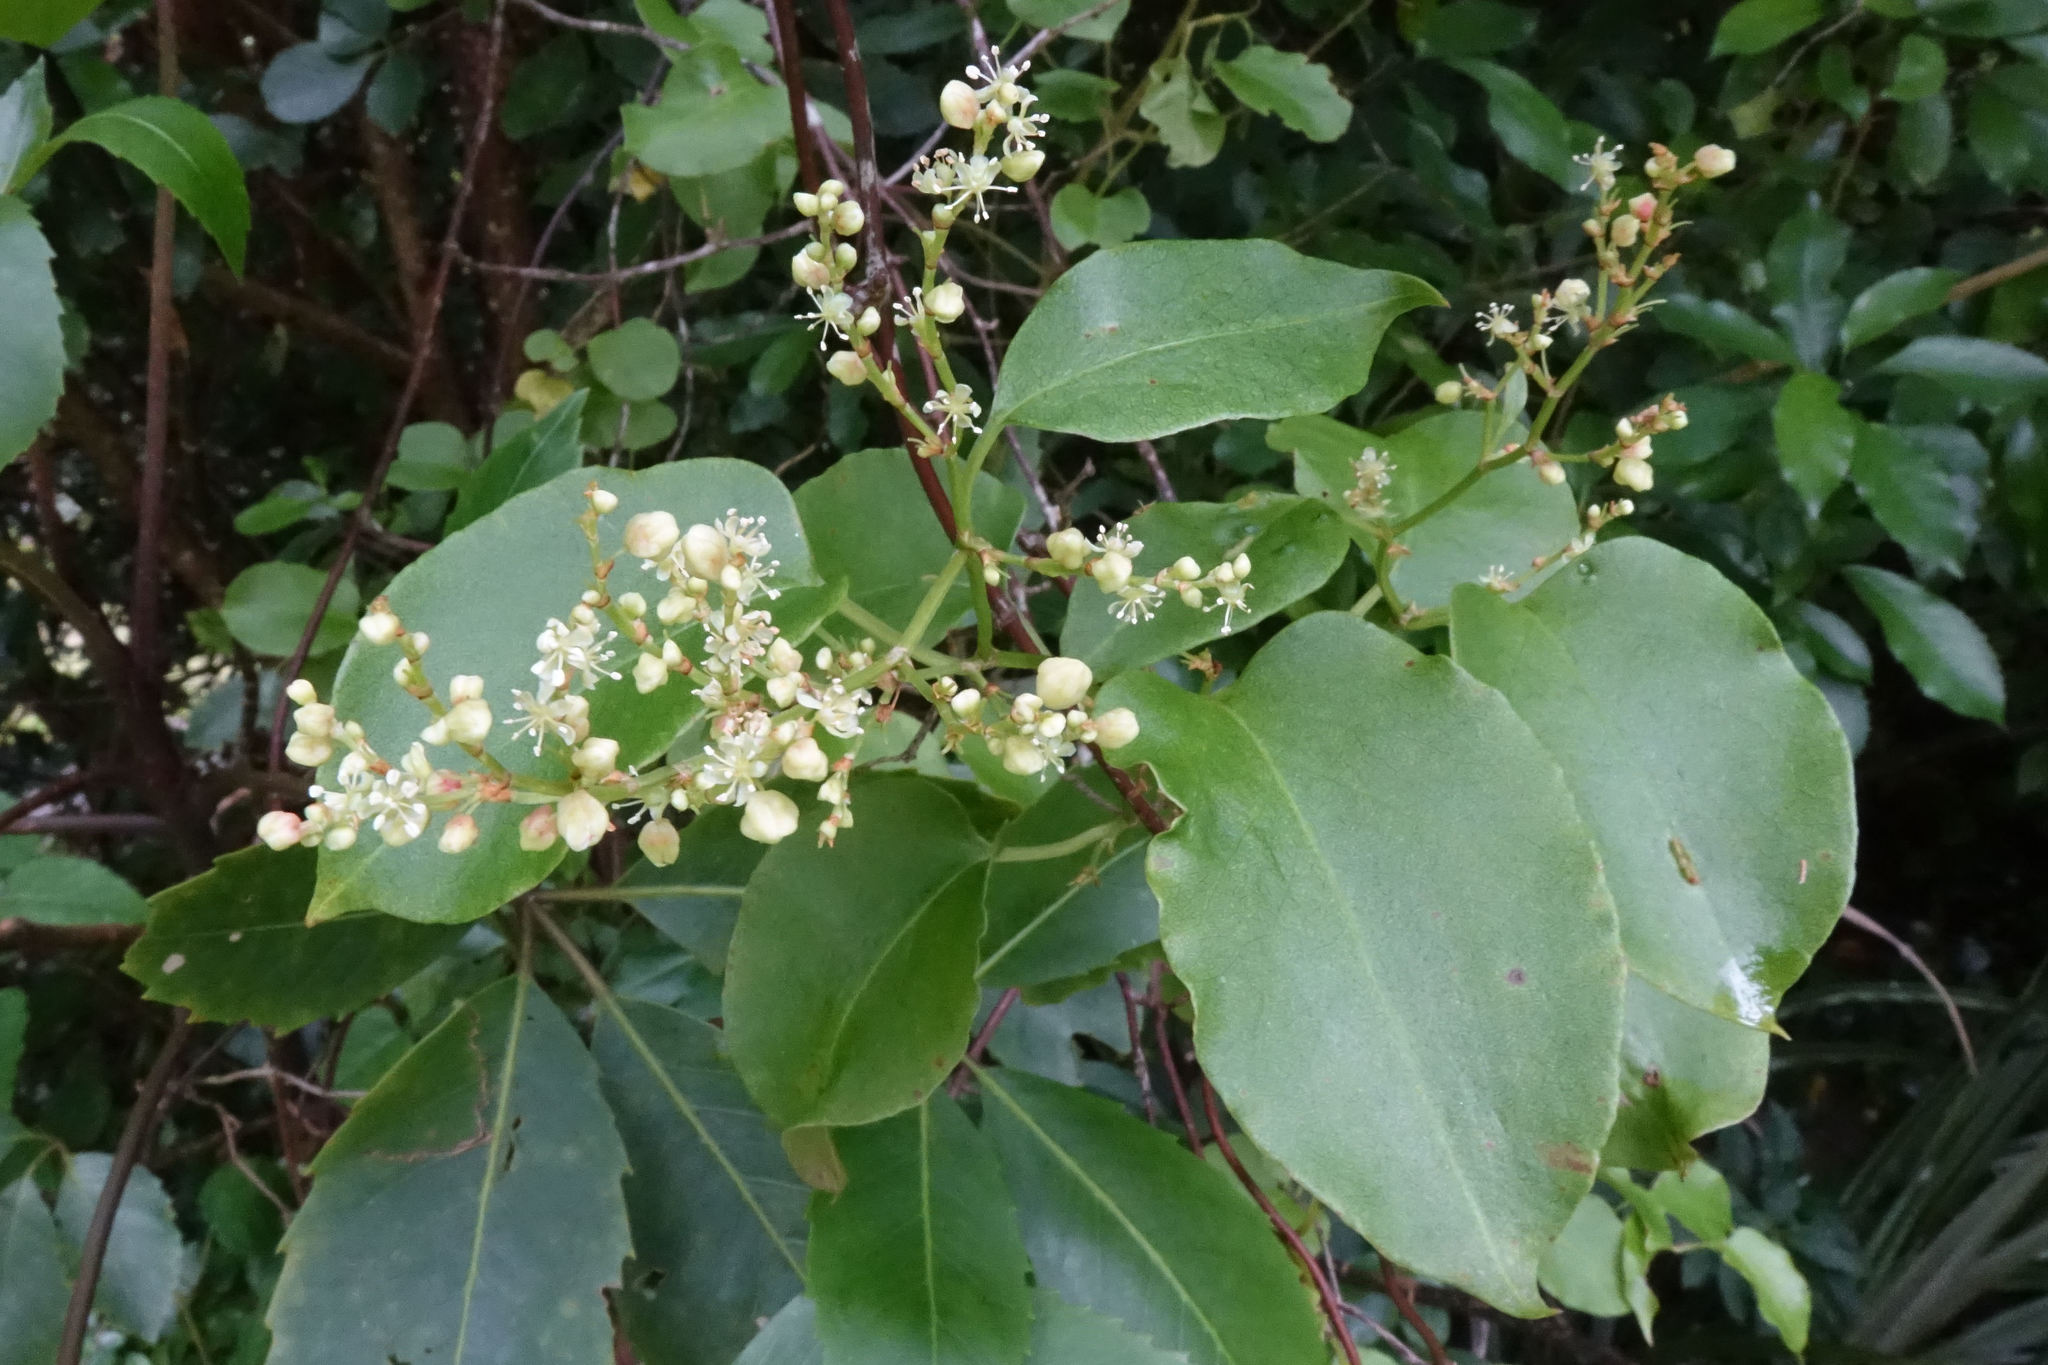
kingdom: Plantae
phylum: Tracheophyta
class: Magnoliopsida
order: Caryophyllales
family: Polygonaceae
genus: Muehlenbeckia
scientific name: Muehlenbeckia australis
